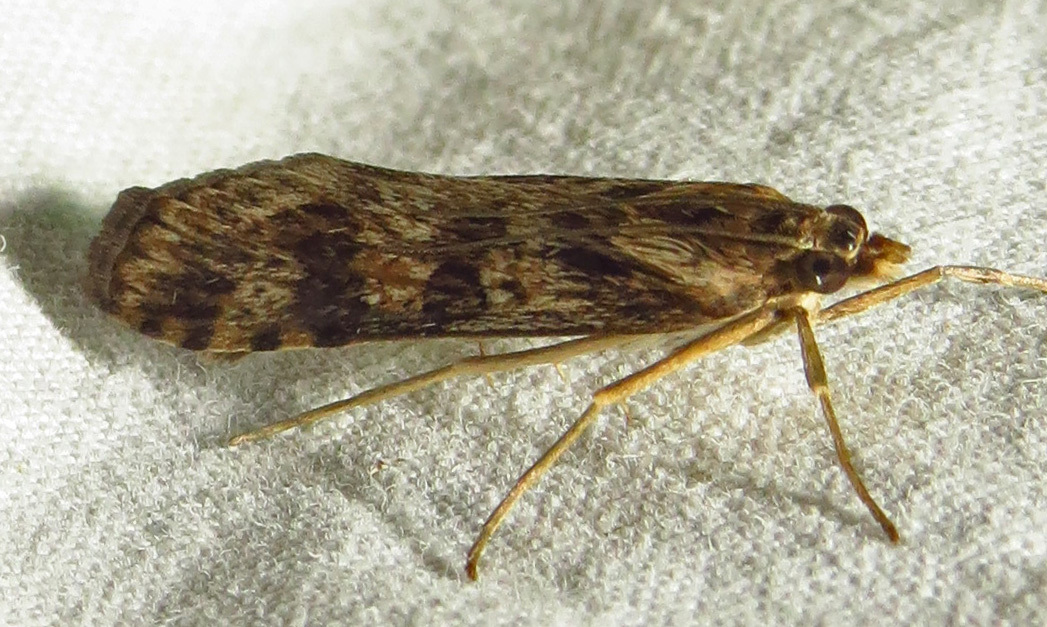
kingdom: Animalia
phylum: Arthropoda
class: Insecta
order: Lepidoptera
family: Crambidae
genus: Nomophila
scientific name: Nomophila nearctica
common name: American rush veneer
